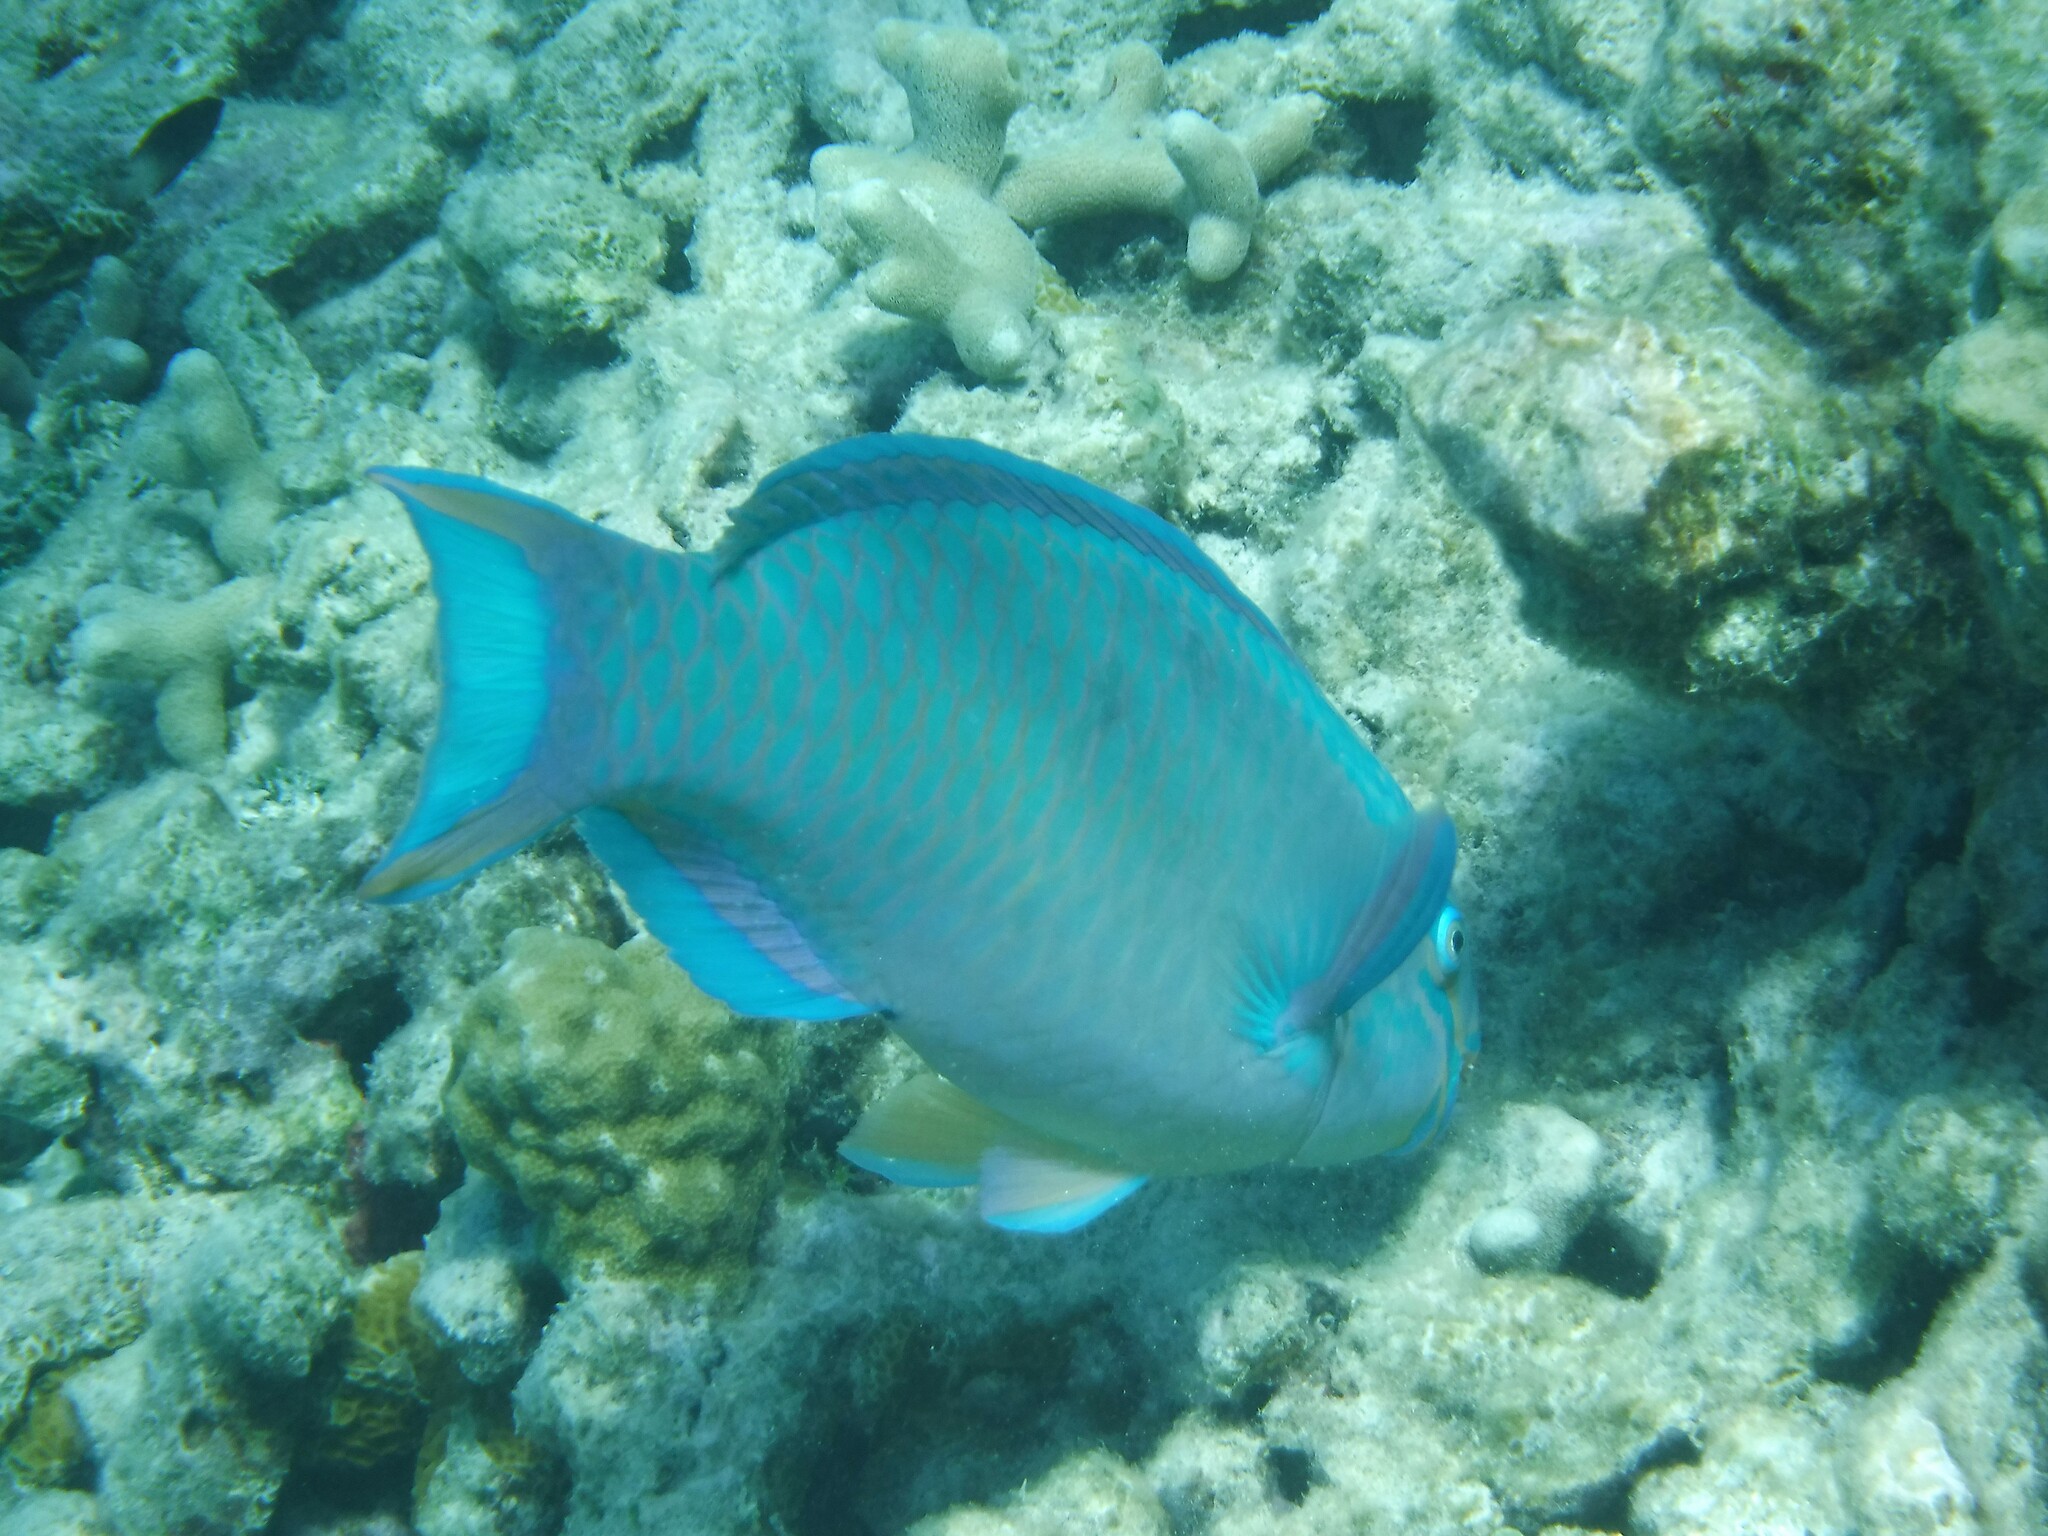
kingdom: Animalia
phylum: Chordata
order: Perciformes
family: Scaridae
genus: Scarus
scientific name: Scarus vetula
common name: Queen parrotfish
